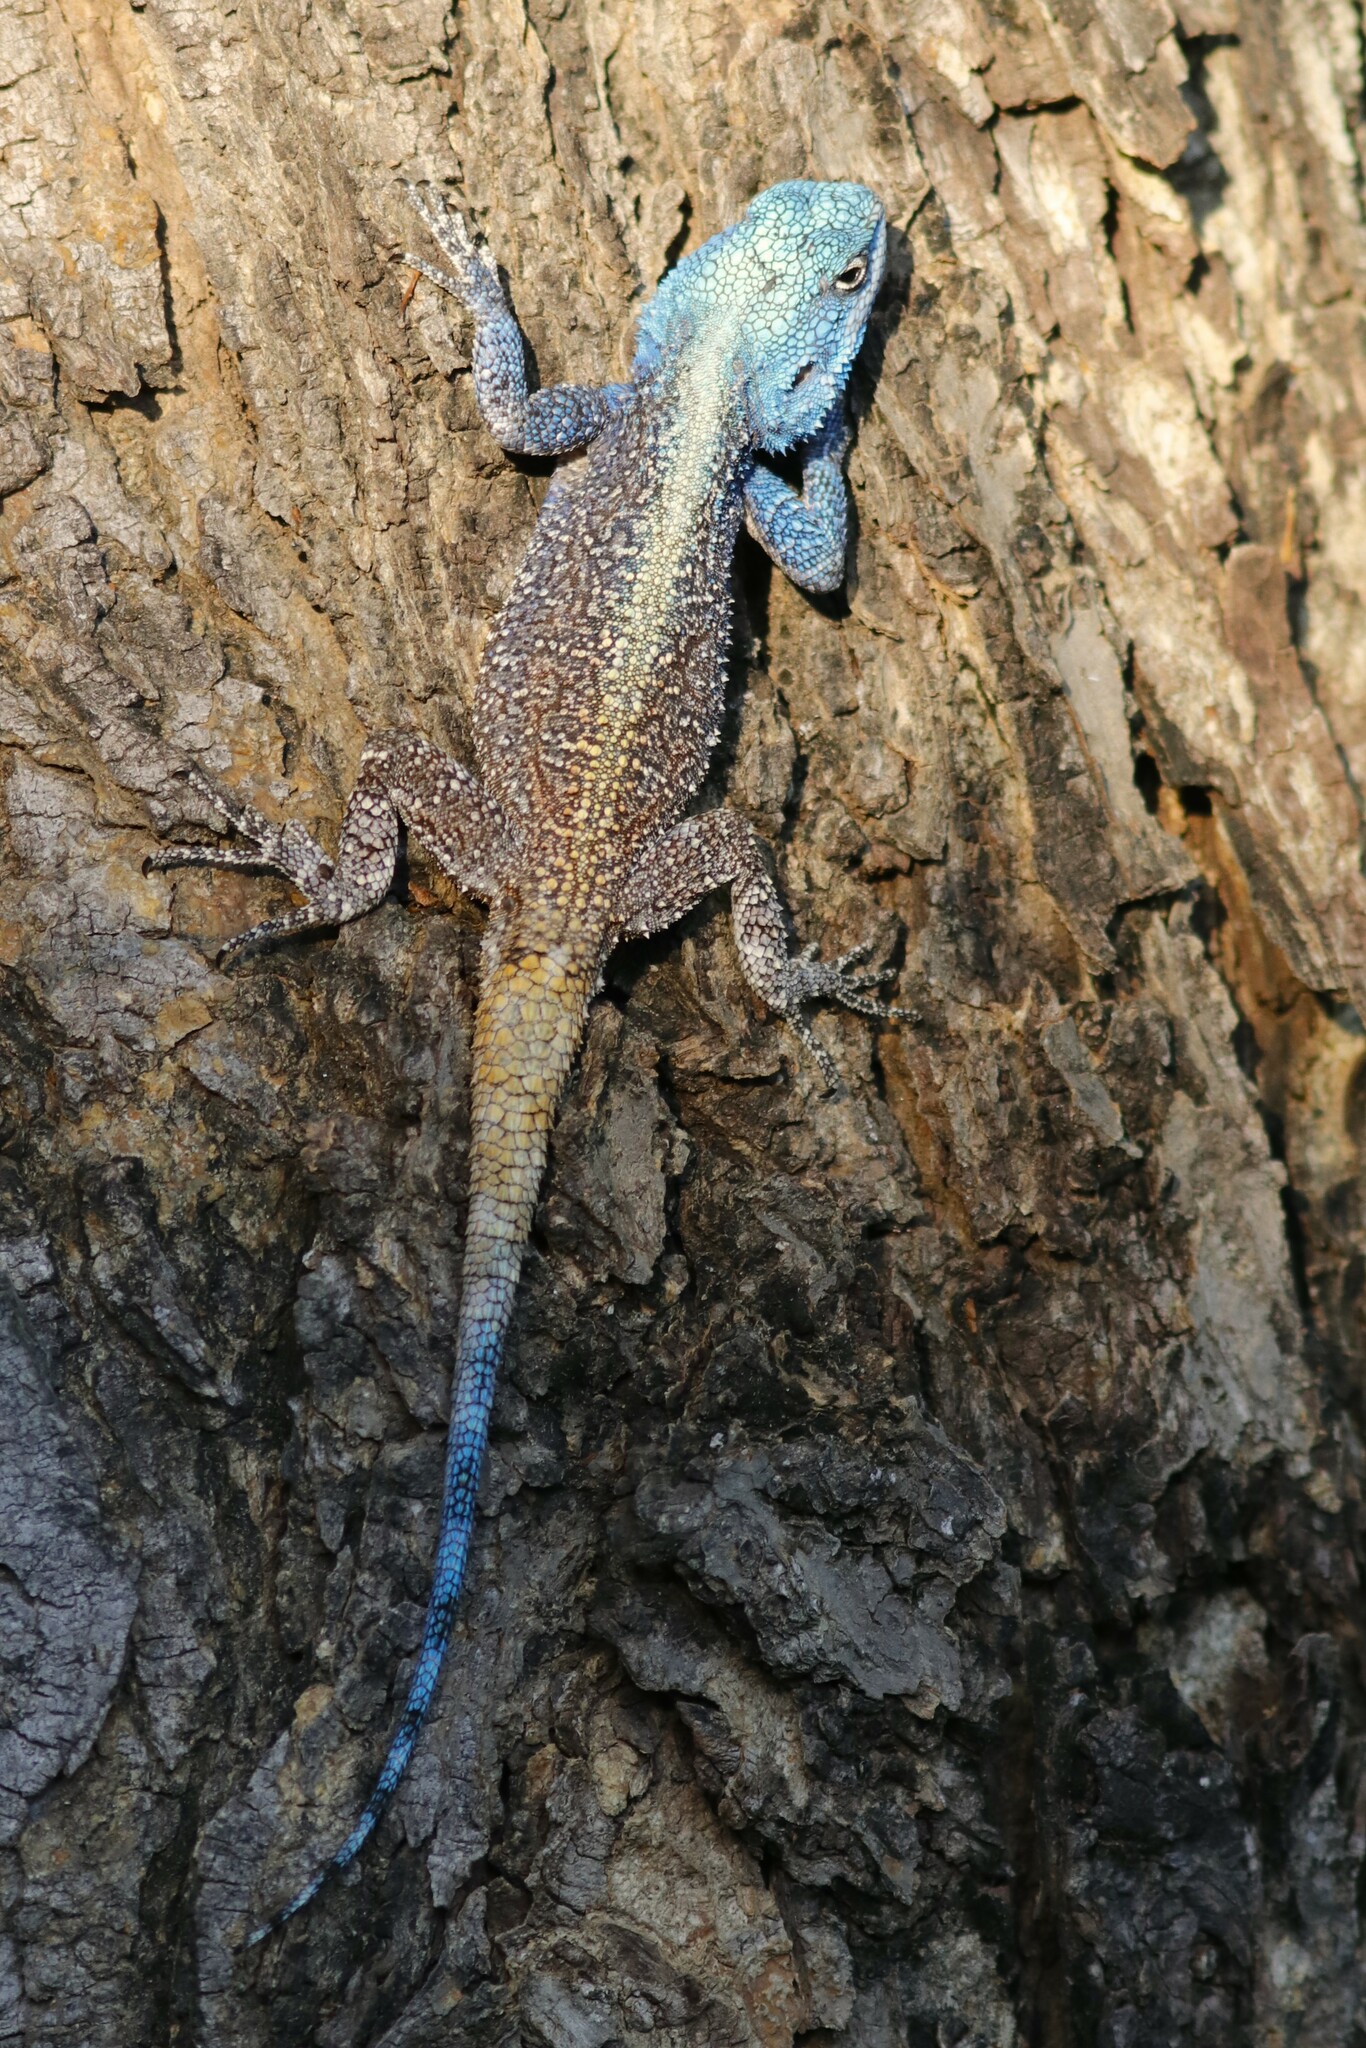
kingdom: Animalia
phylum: Chordata
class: Squamata
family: Agamidae
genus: Acanthocercus
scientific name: Acanthocercus atricollis
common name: Southern tree agama
